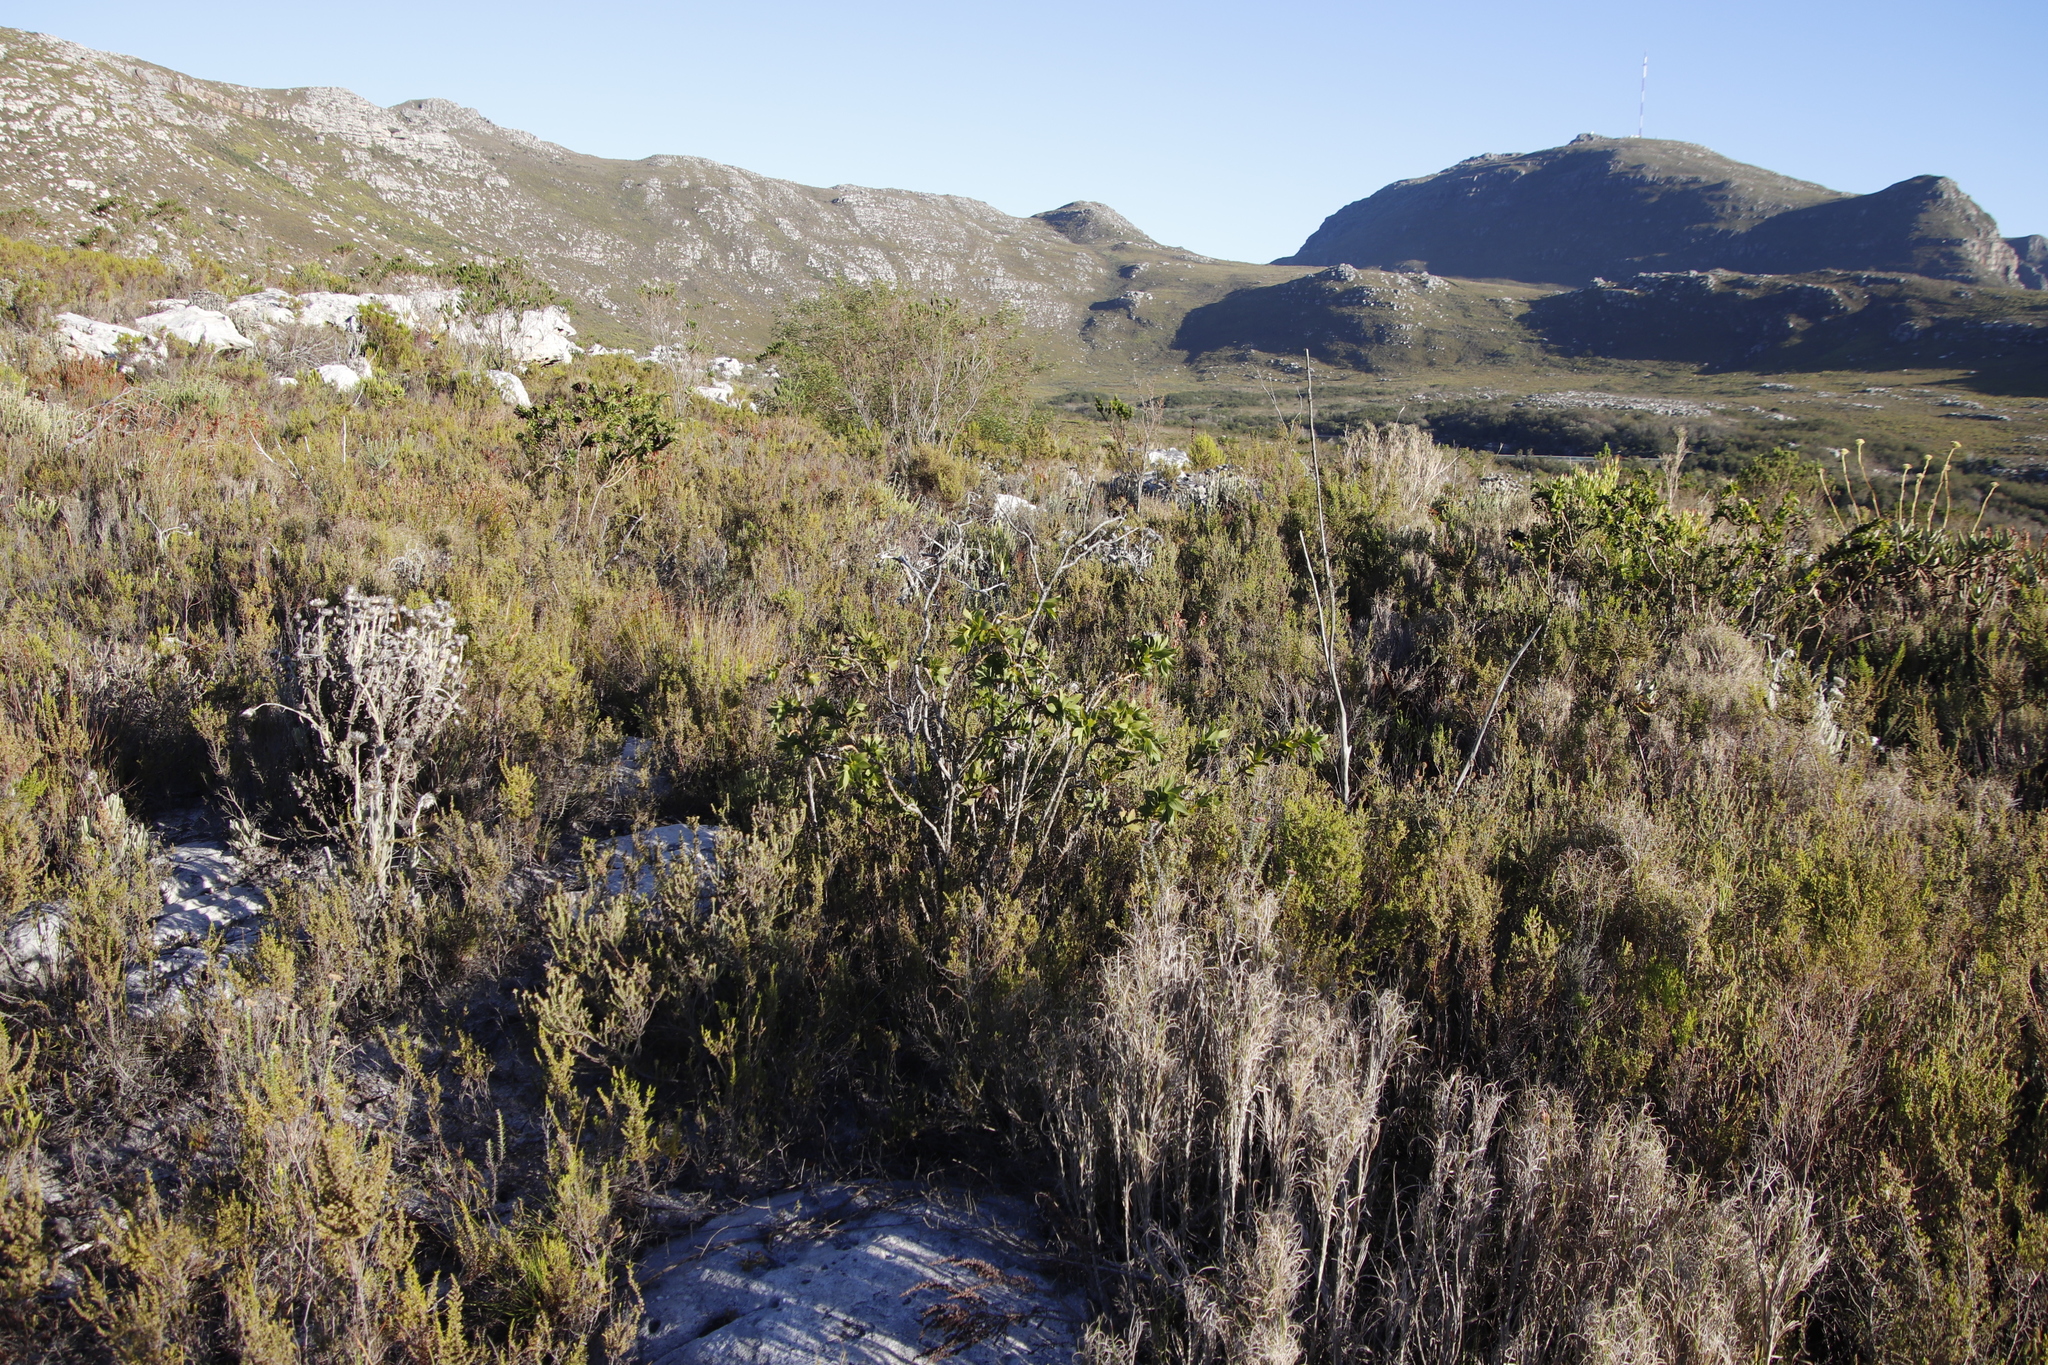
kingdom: Plantae
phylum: Tracheophyta
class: Magnoliopsida
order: Fabales
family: Fabaceae
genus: Liparia
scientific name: Liparia splendens
